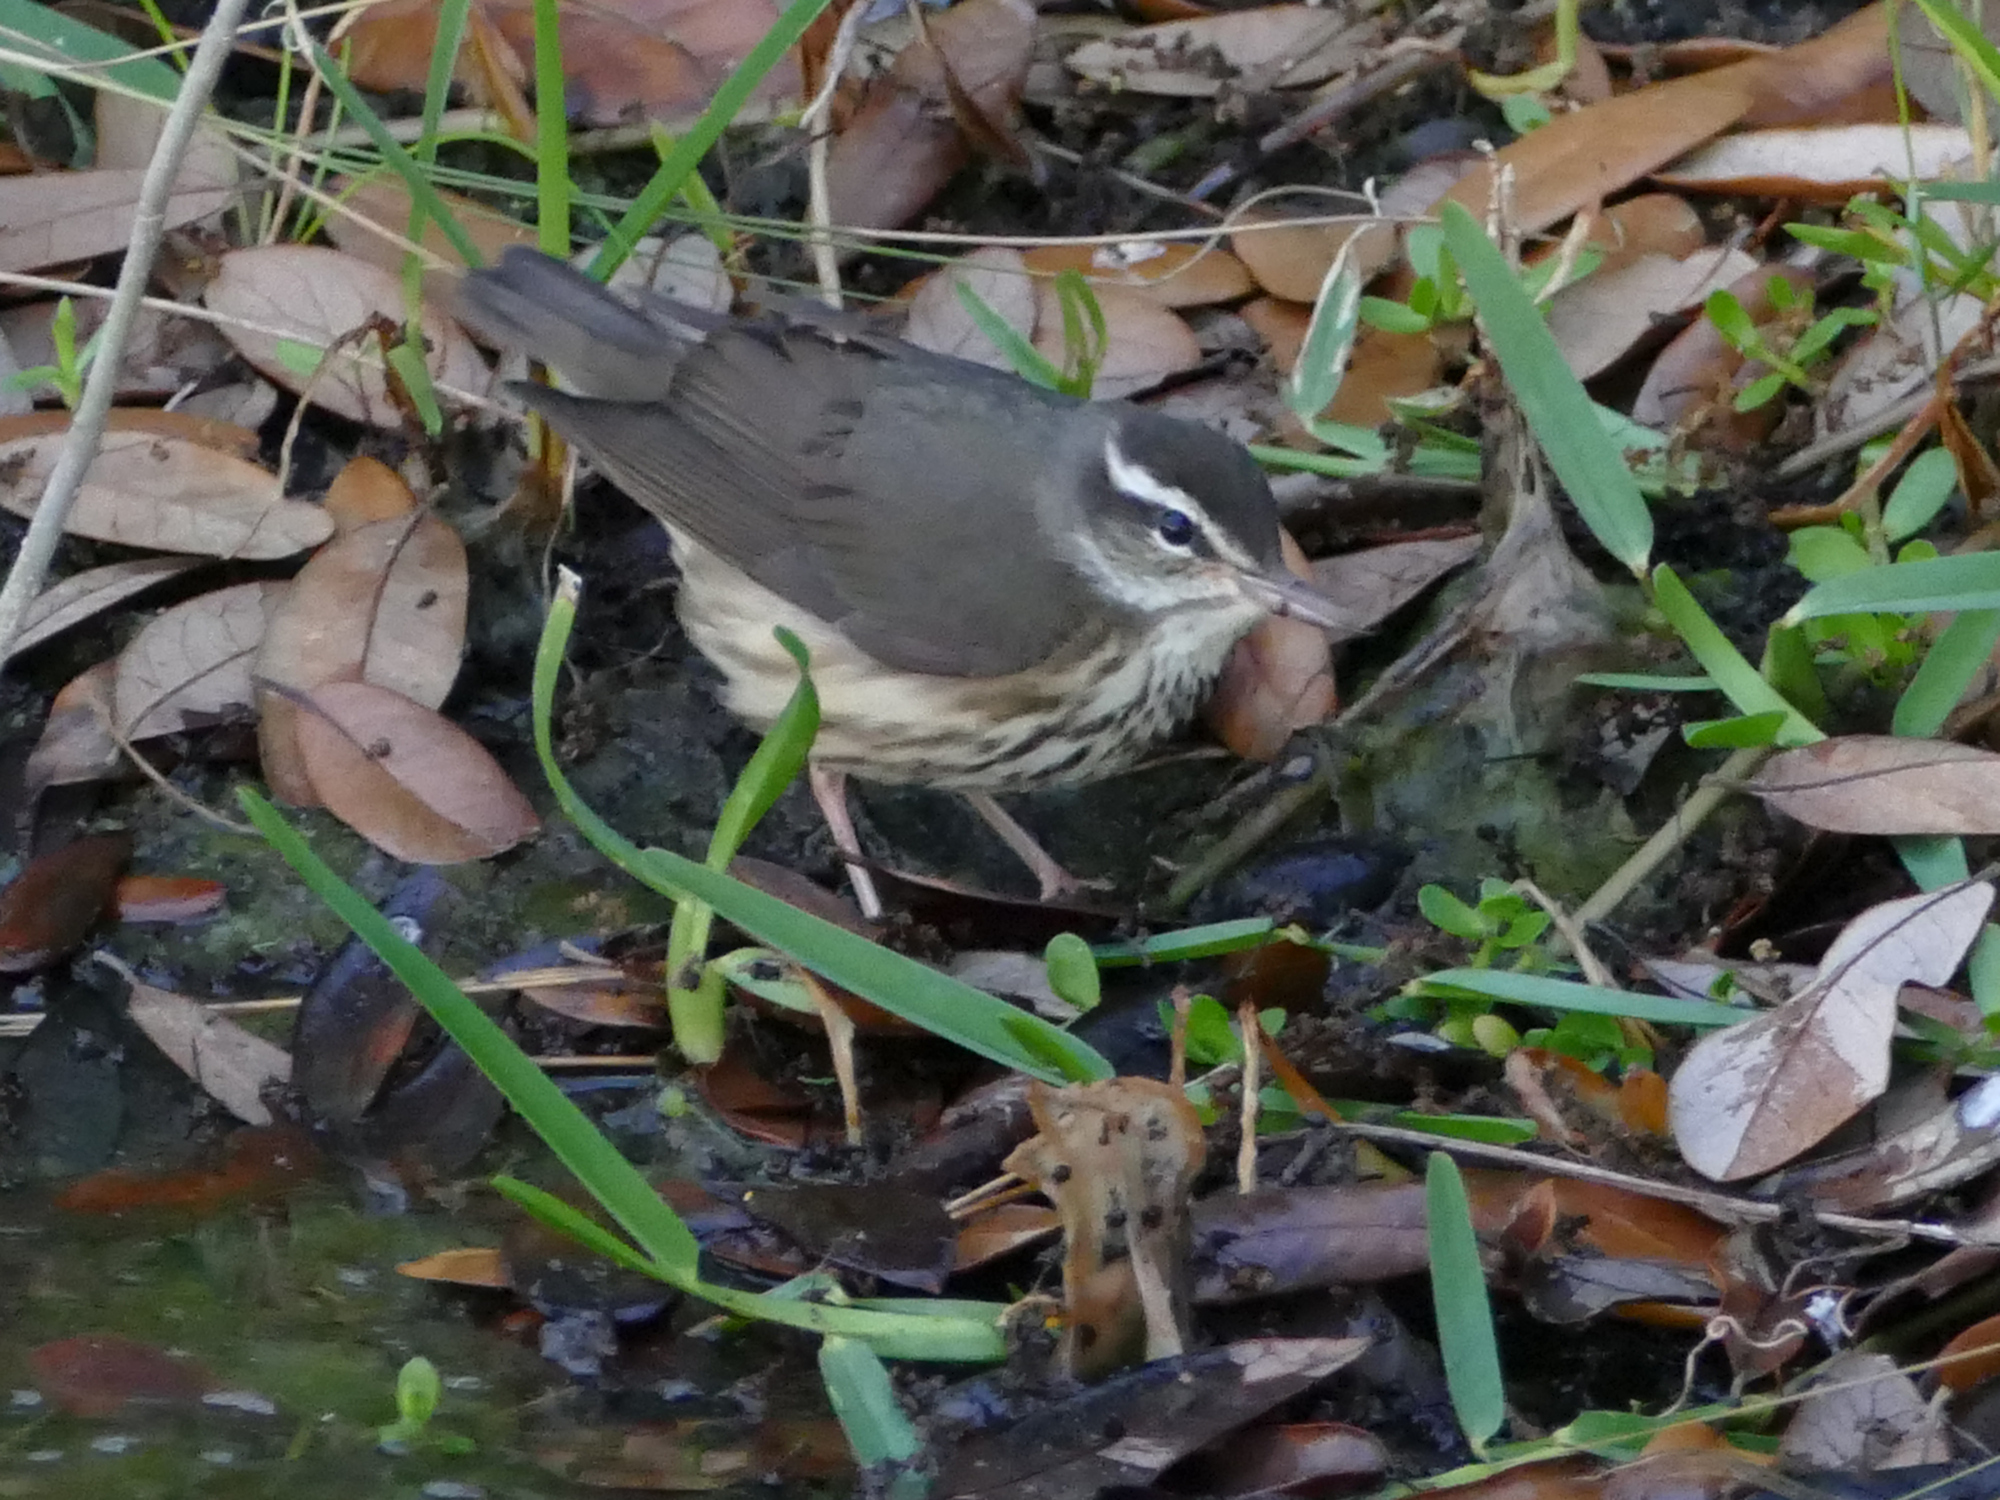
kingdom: Animalia
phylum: Chordata
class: Aves
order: Passeriformes
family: Parulidae
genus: Parkesia
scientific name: Parkesia motacilla
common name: Louisiana waterthrush
